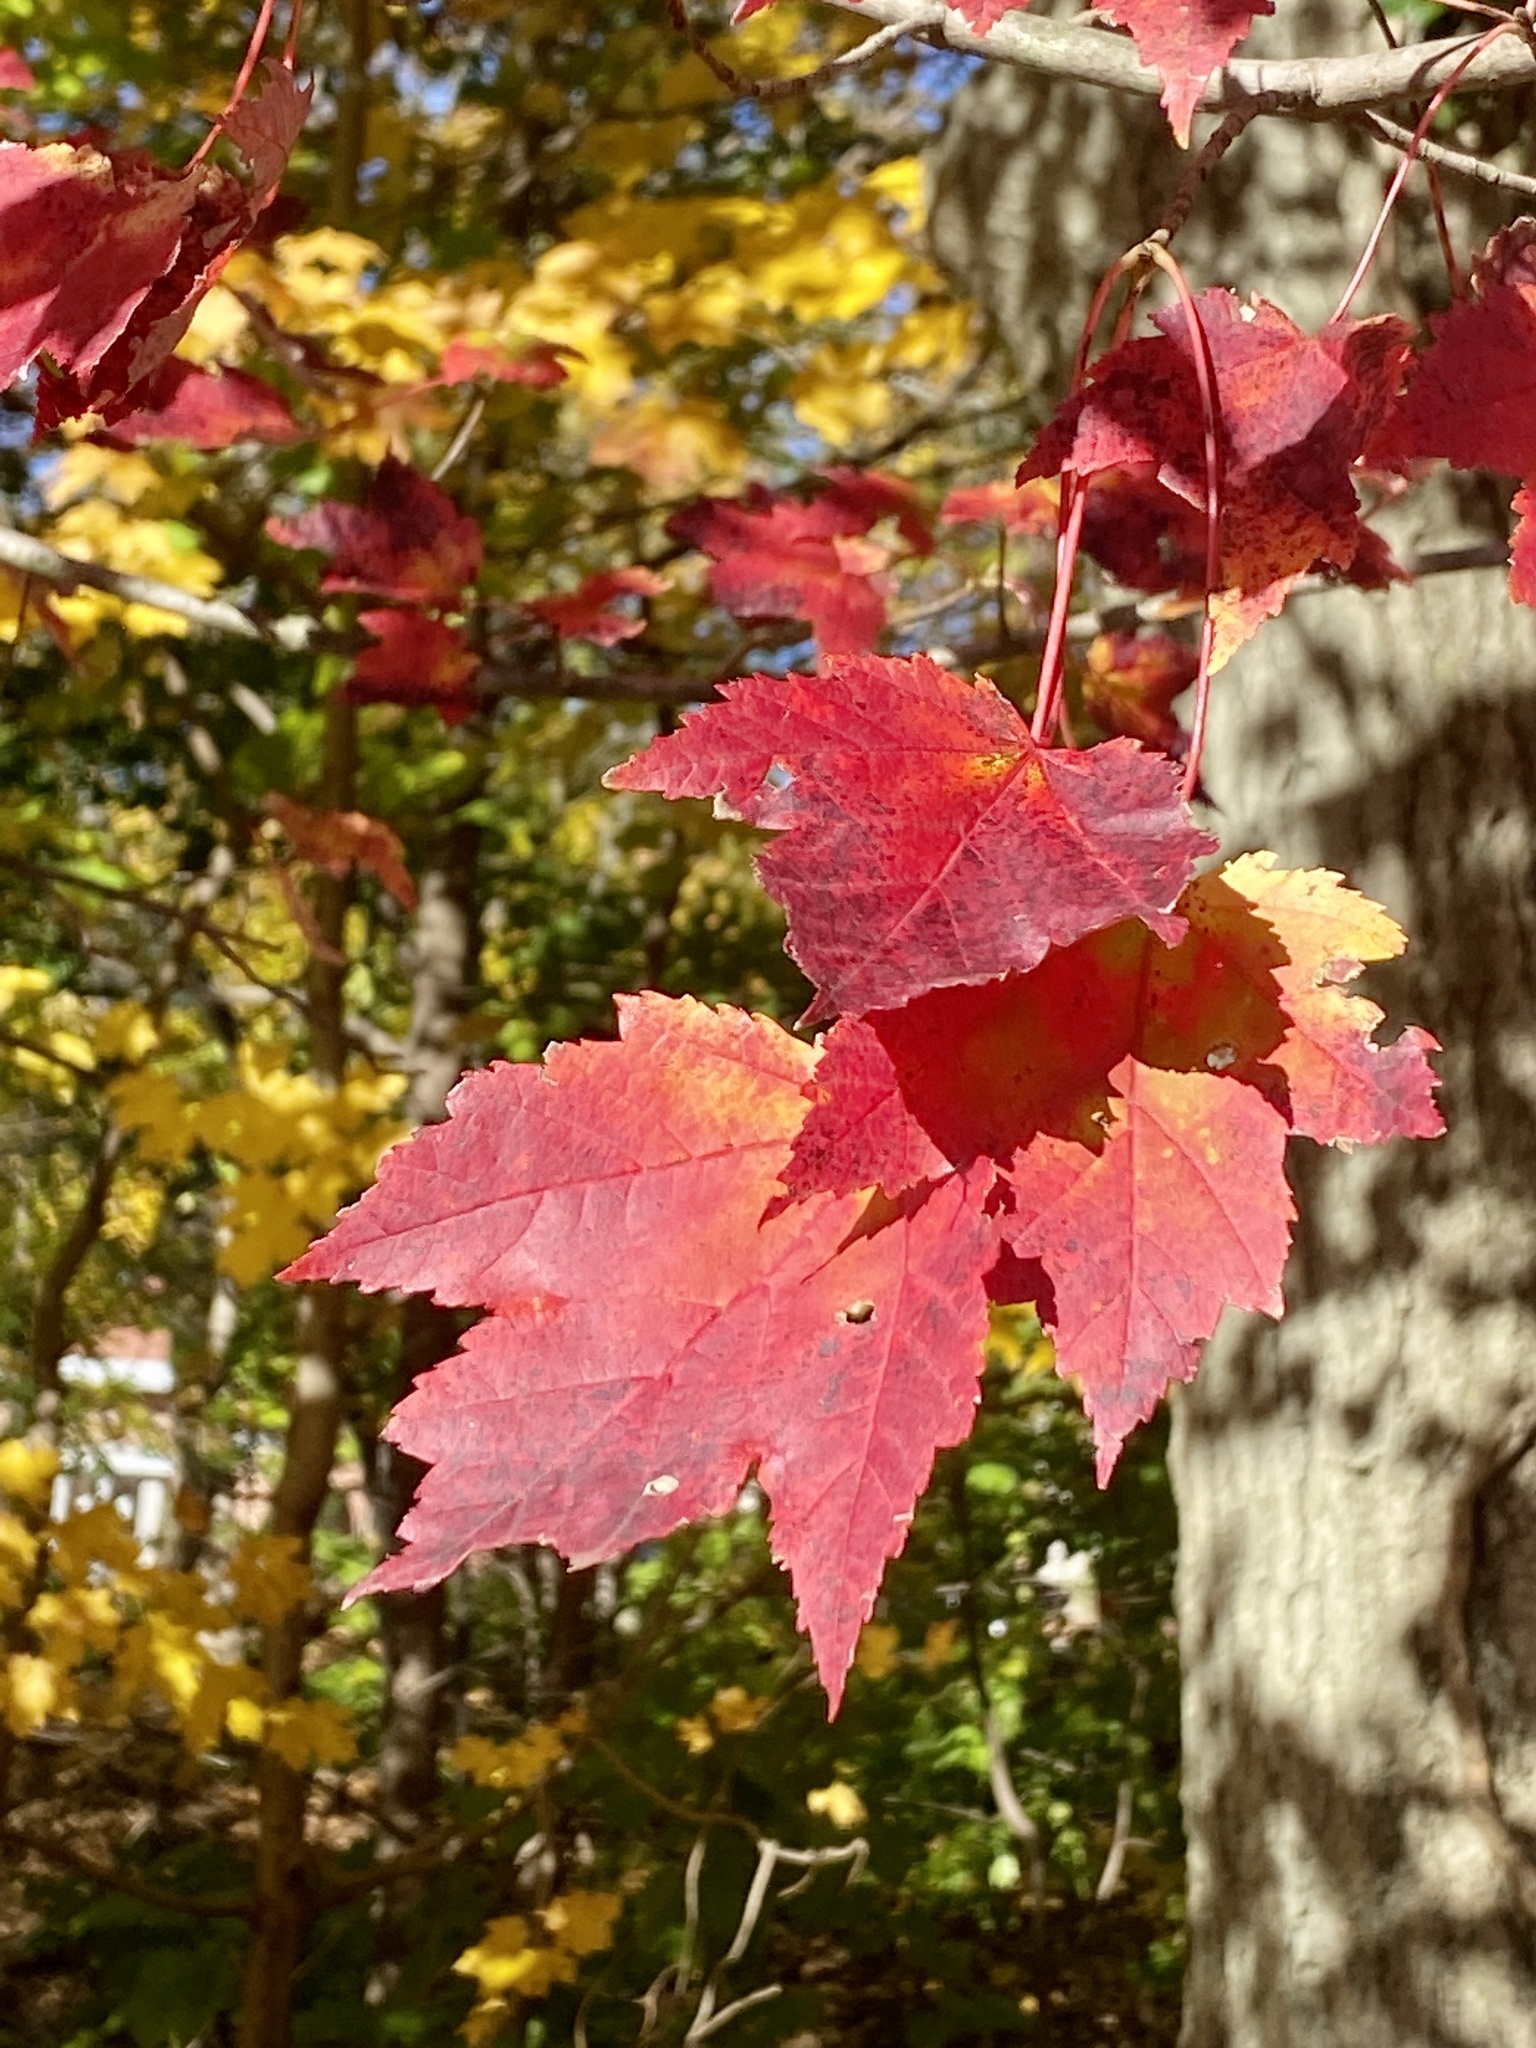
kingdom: Plantae
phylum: Tracheophyta
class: Magnoliopsida
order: Sapindales
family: Sapindaceae
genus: Acer
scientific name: Acer rubrum
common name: Red maple
